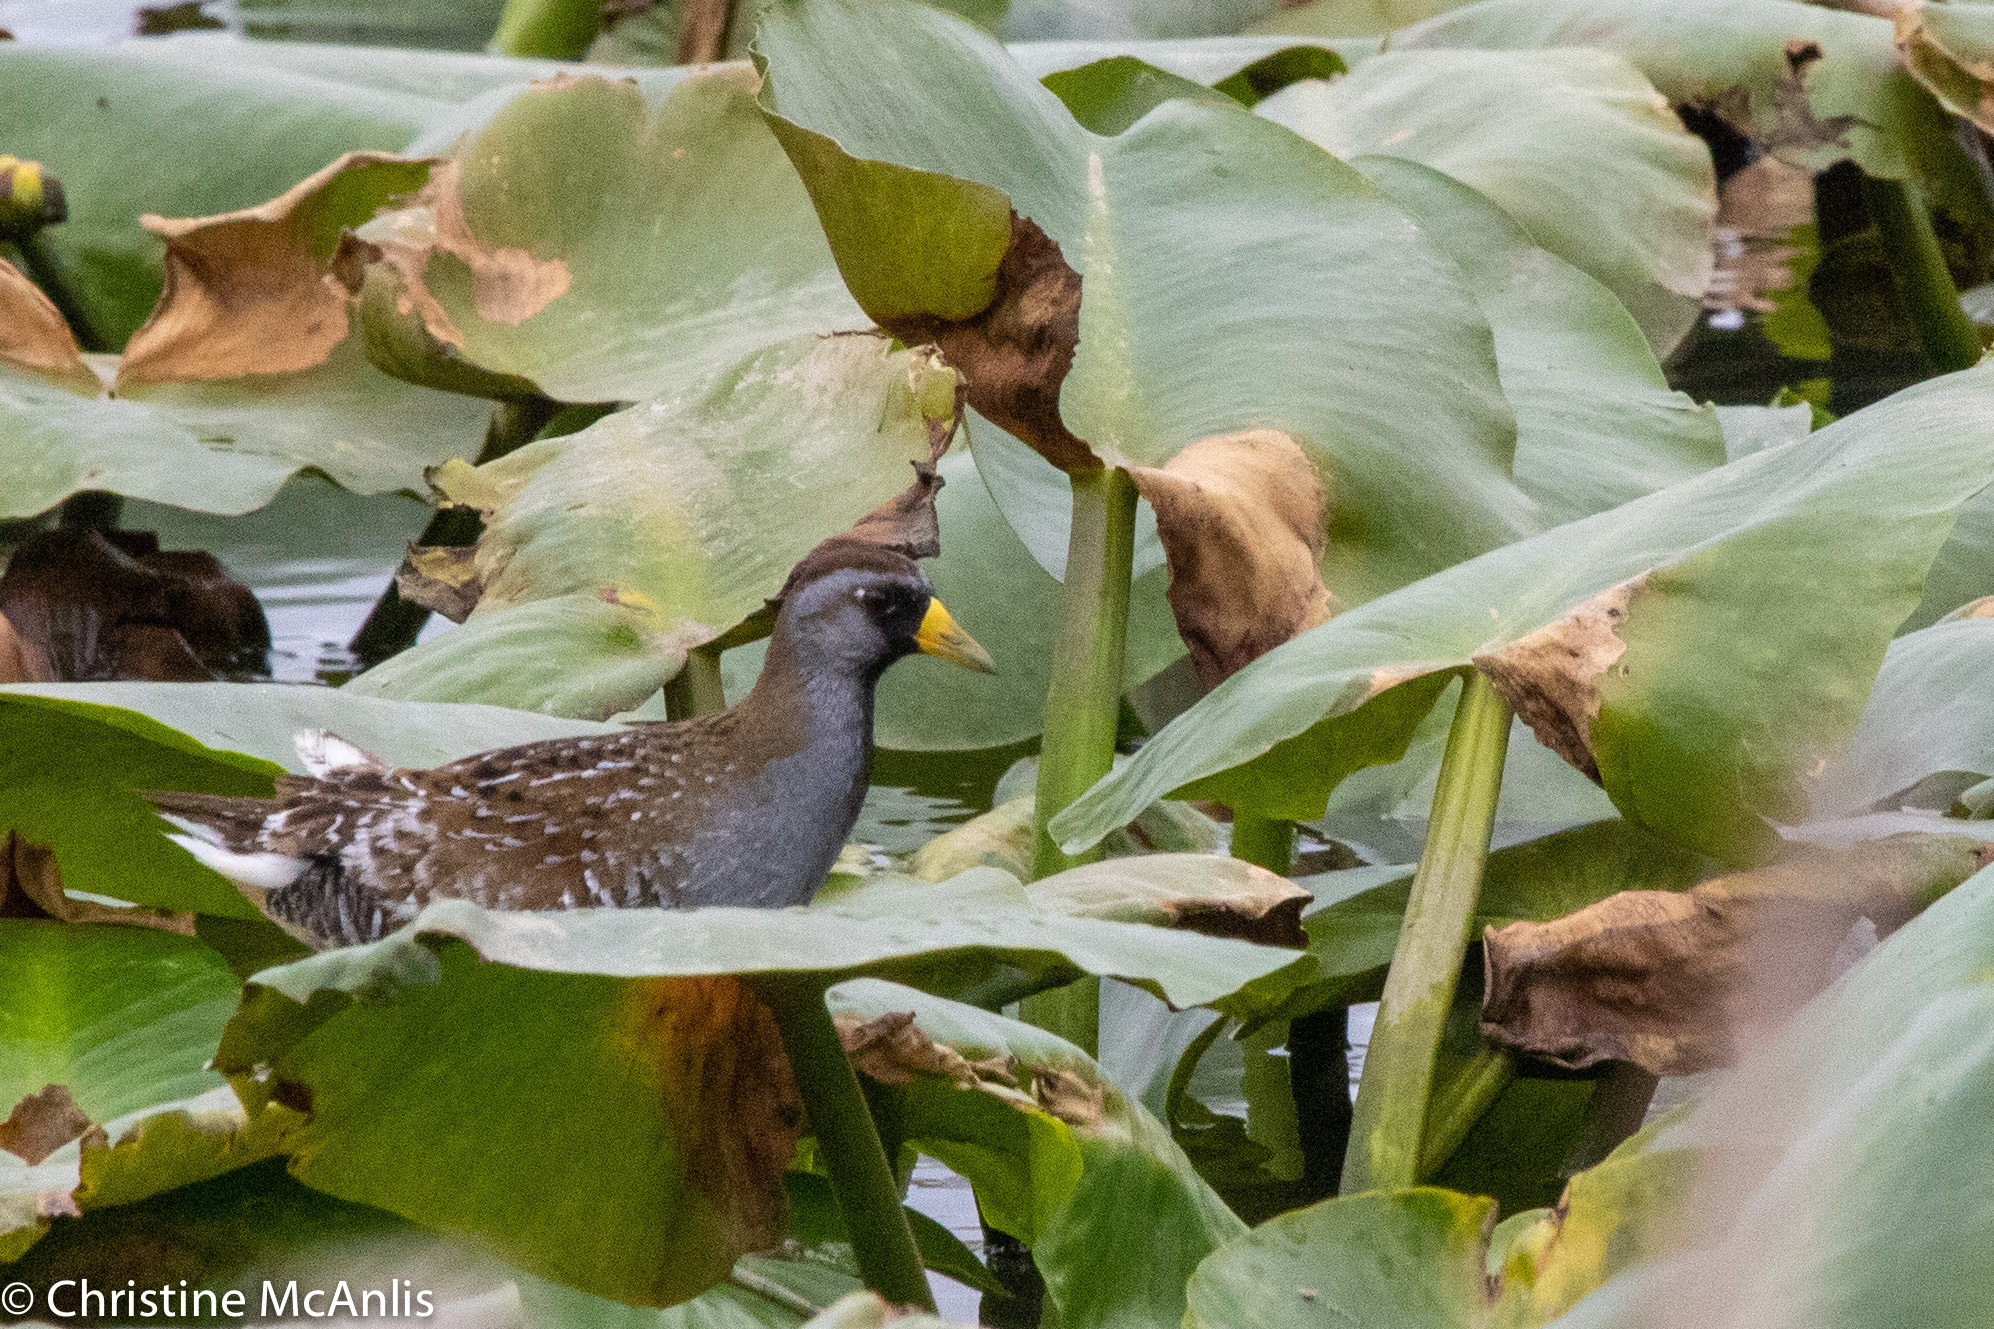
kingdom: Animalia
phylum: Chordata
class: Aves
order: Gruiformes
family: Rallidae
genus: Porzana
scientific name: Porzana carolina
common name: Sora
